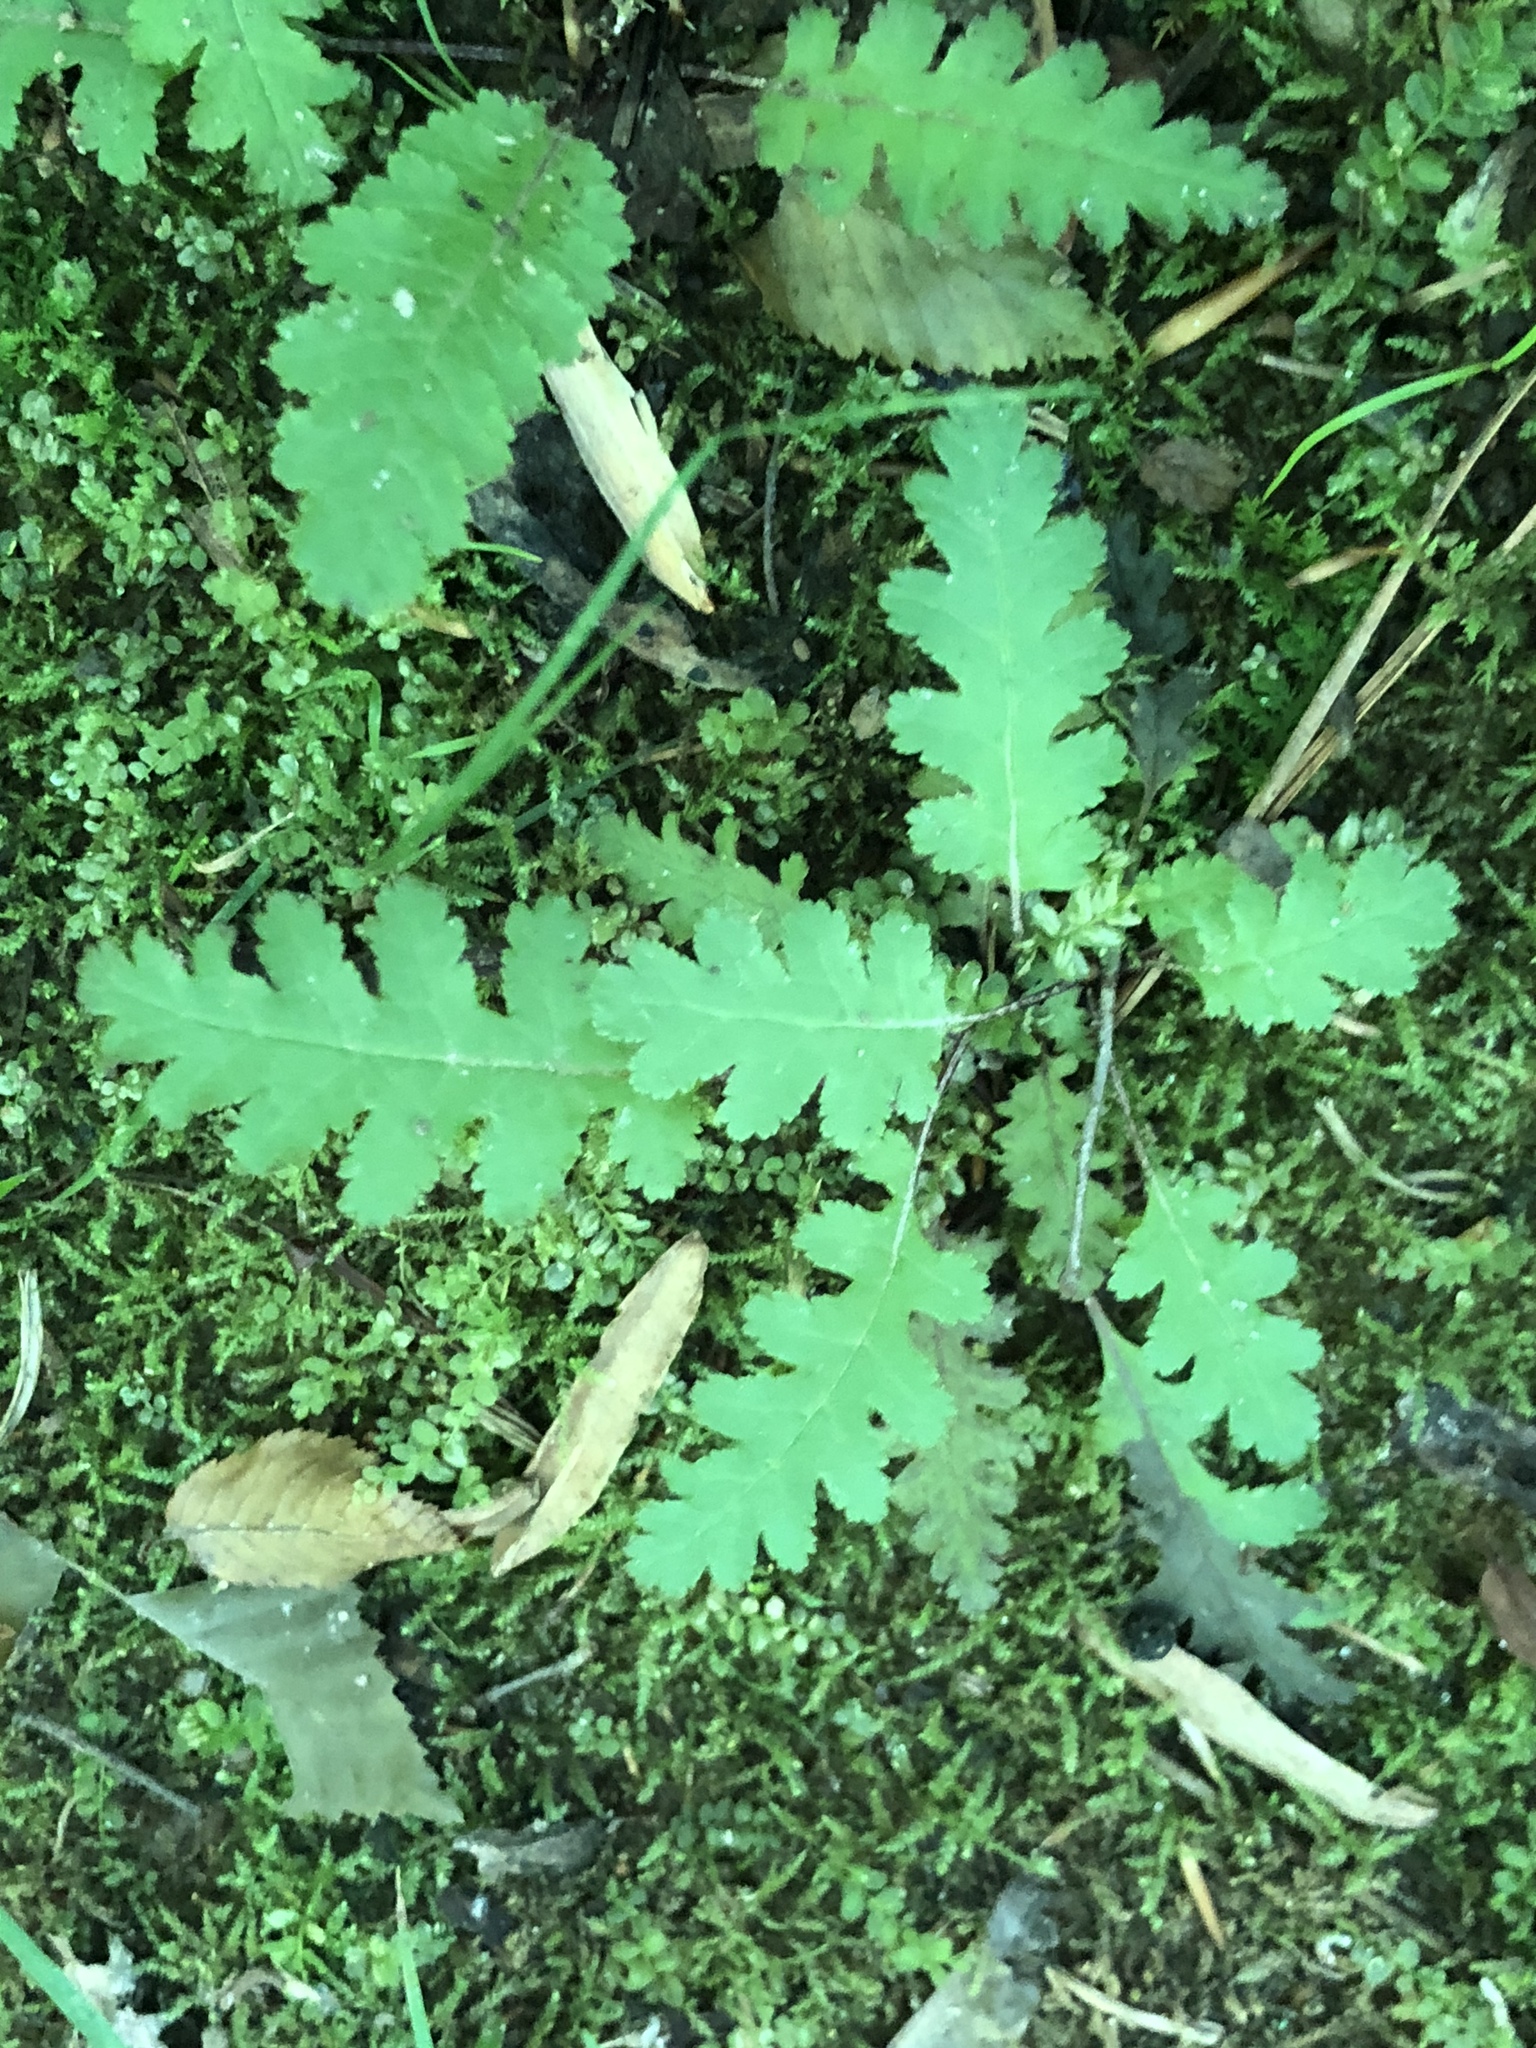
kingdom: Plantae
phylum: Tracheophyta
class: Magnoliopsida
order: Lamiales
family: Orobanchaceae
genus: Pedicularis
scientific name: Pedicularis canadensis
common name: Early lousewort
